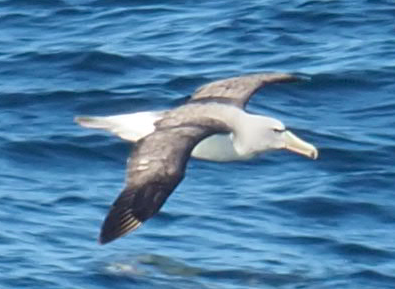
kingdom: Animalia
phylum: Chordata
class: Aves
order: Procellariiformes
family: Diomedeidae
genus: Thalassarche
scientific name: Thalassarche salvini
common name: Salvin's albatross
